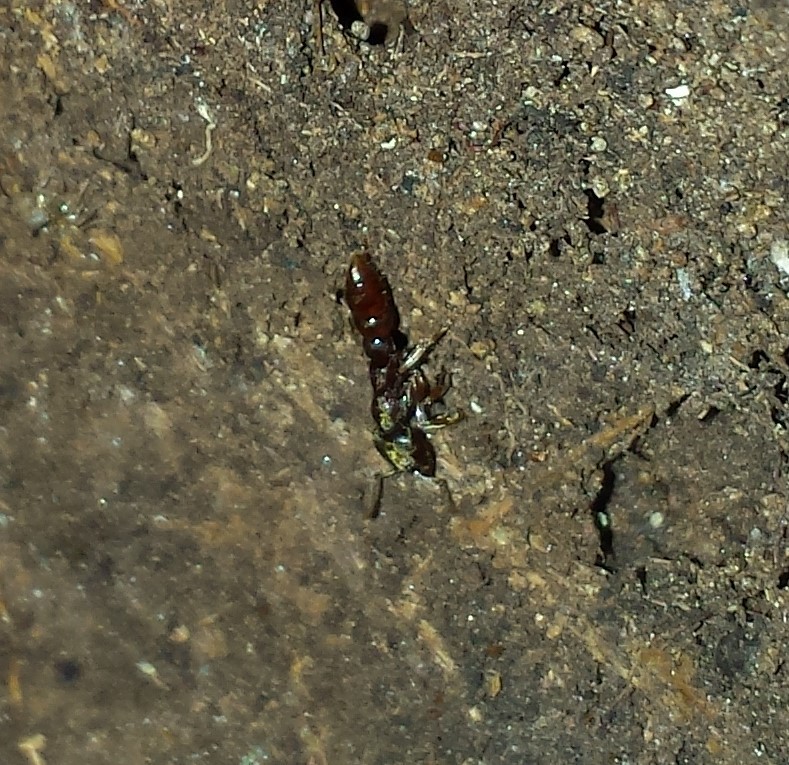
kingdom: Animalia
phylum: Arthropoda
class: Insecta
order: Hymenoptera
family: Formicidae
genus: Stigmatomma
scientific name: Stigmatomma pallipes
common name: Vampire ant
